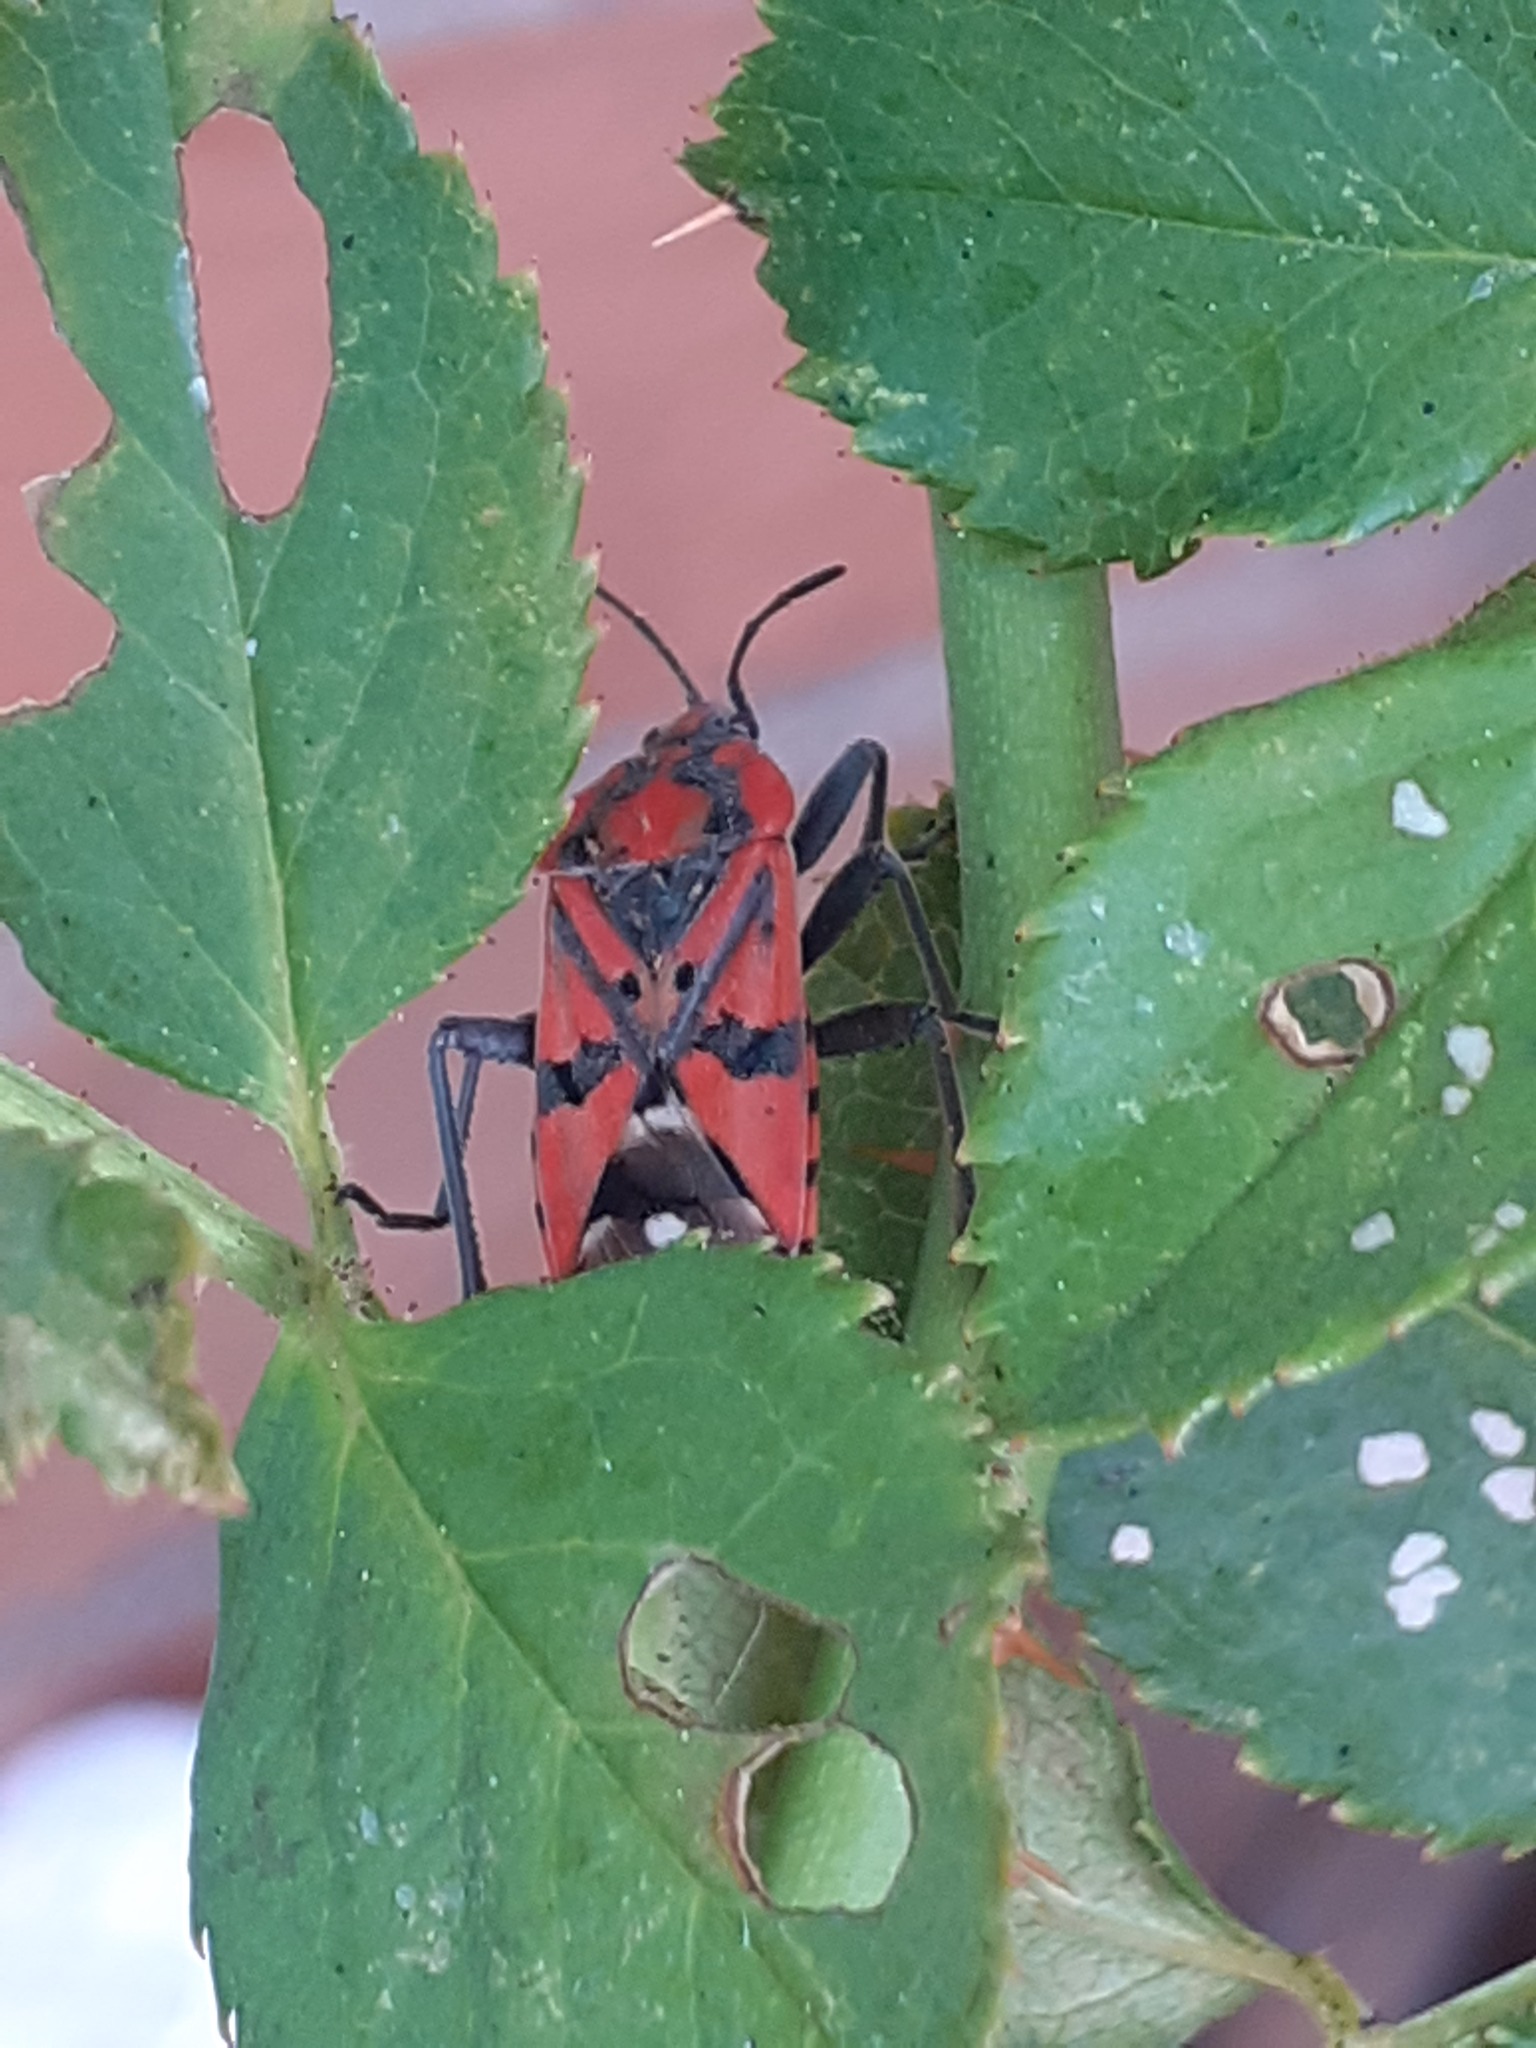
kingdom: Animalia
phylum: Arthropoda
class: Insecta
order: Hemiptera
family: Lygaeidae
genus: Spilostethus
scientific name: Spilostethus pandurus
